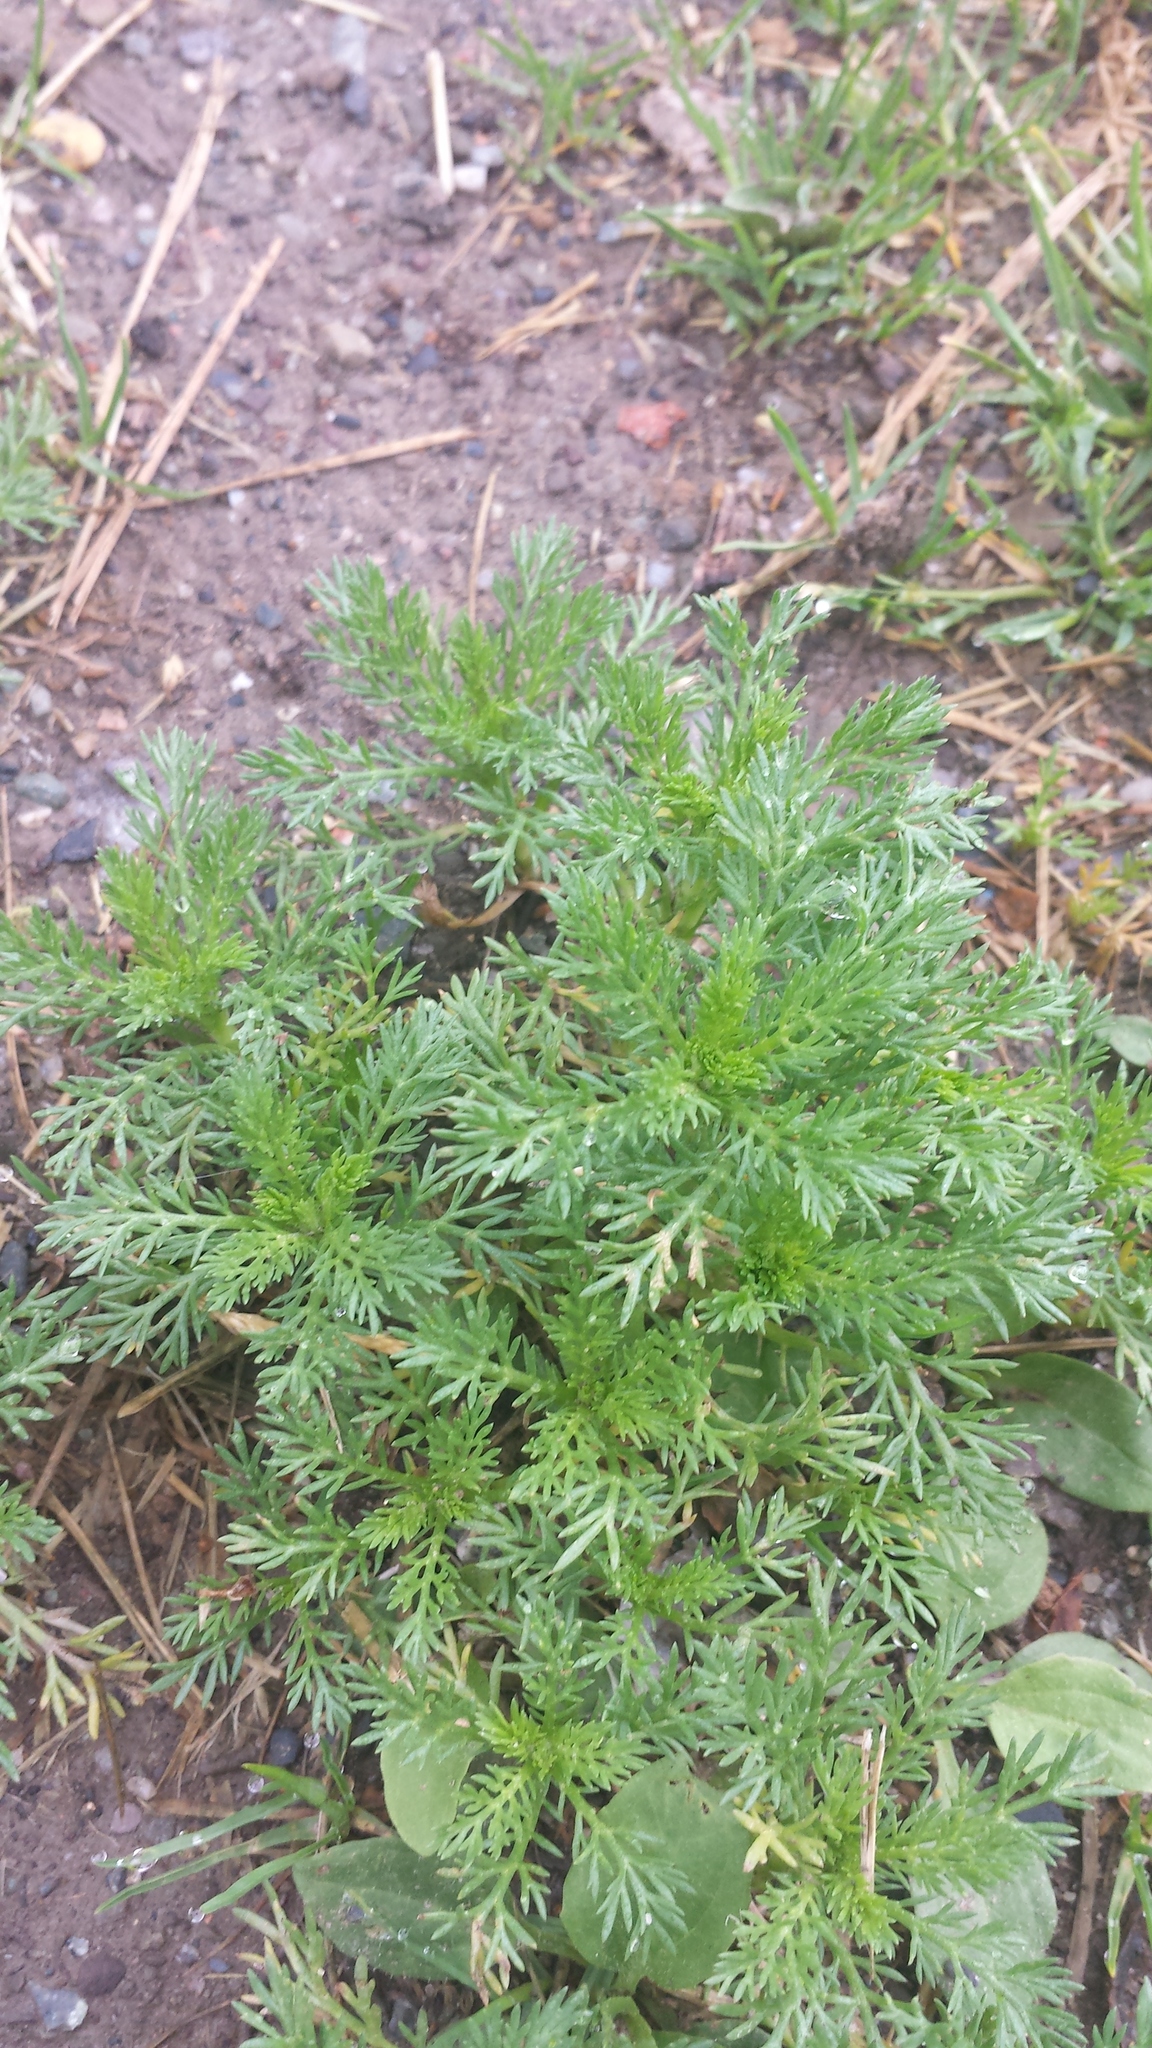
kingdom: Plantae
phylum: Tracheophyta
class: Magnoliopsida
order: Asterales
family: Asteraceae
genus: Matricaria
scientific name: Matricaria discoidea
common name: Disc mayweed
